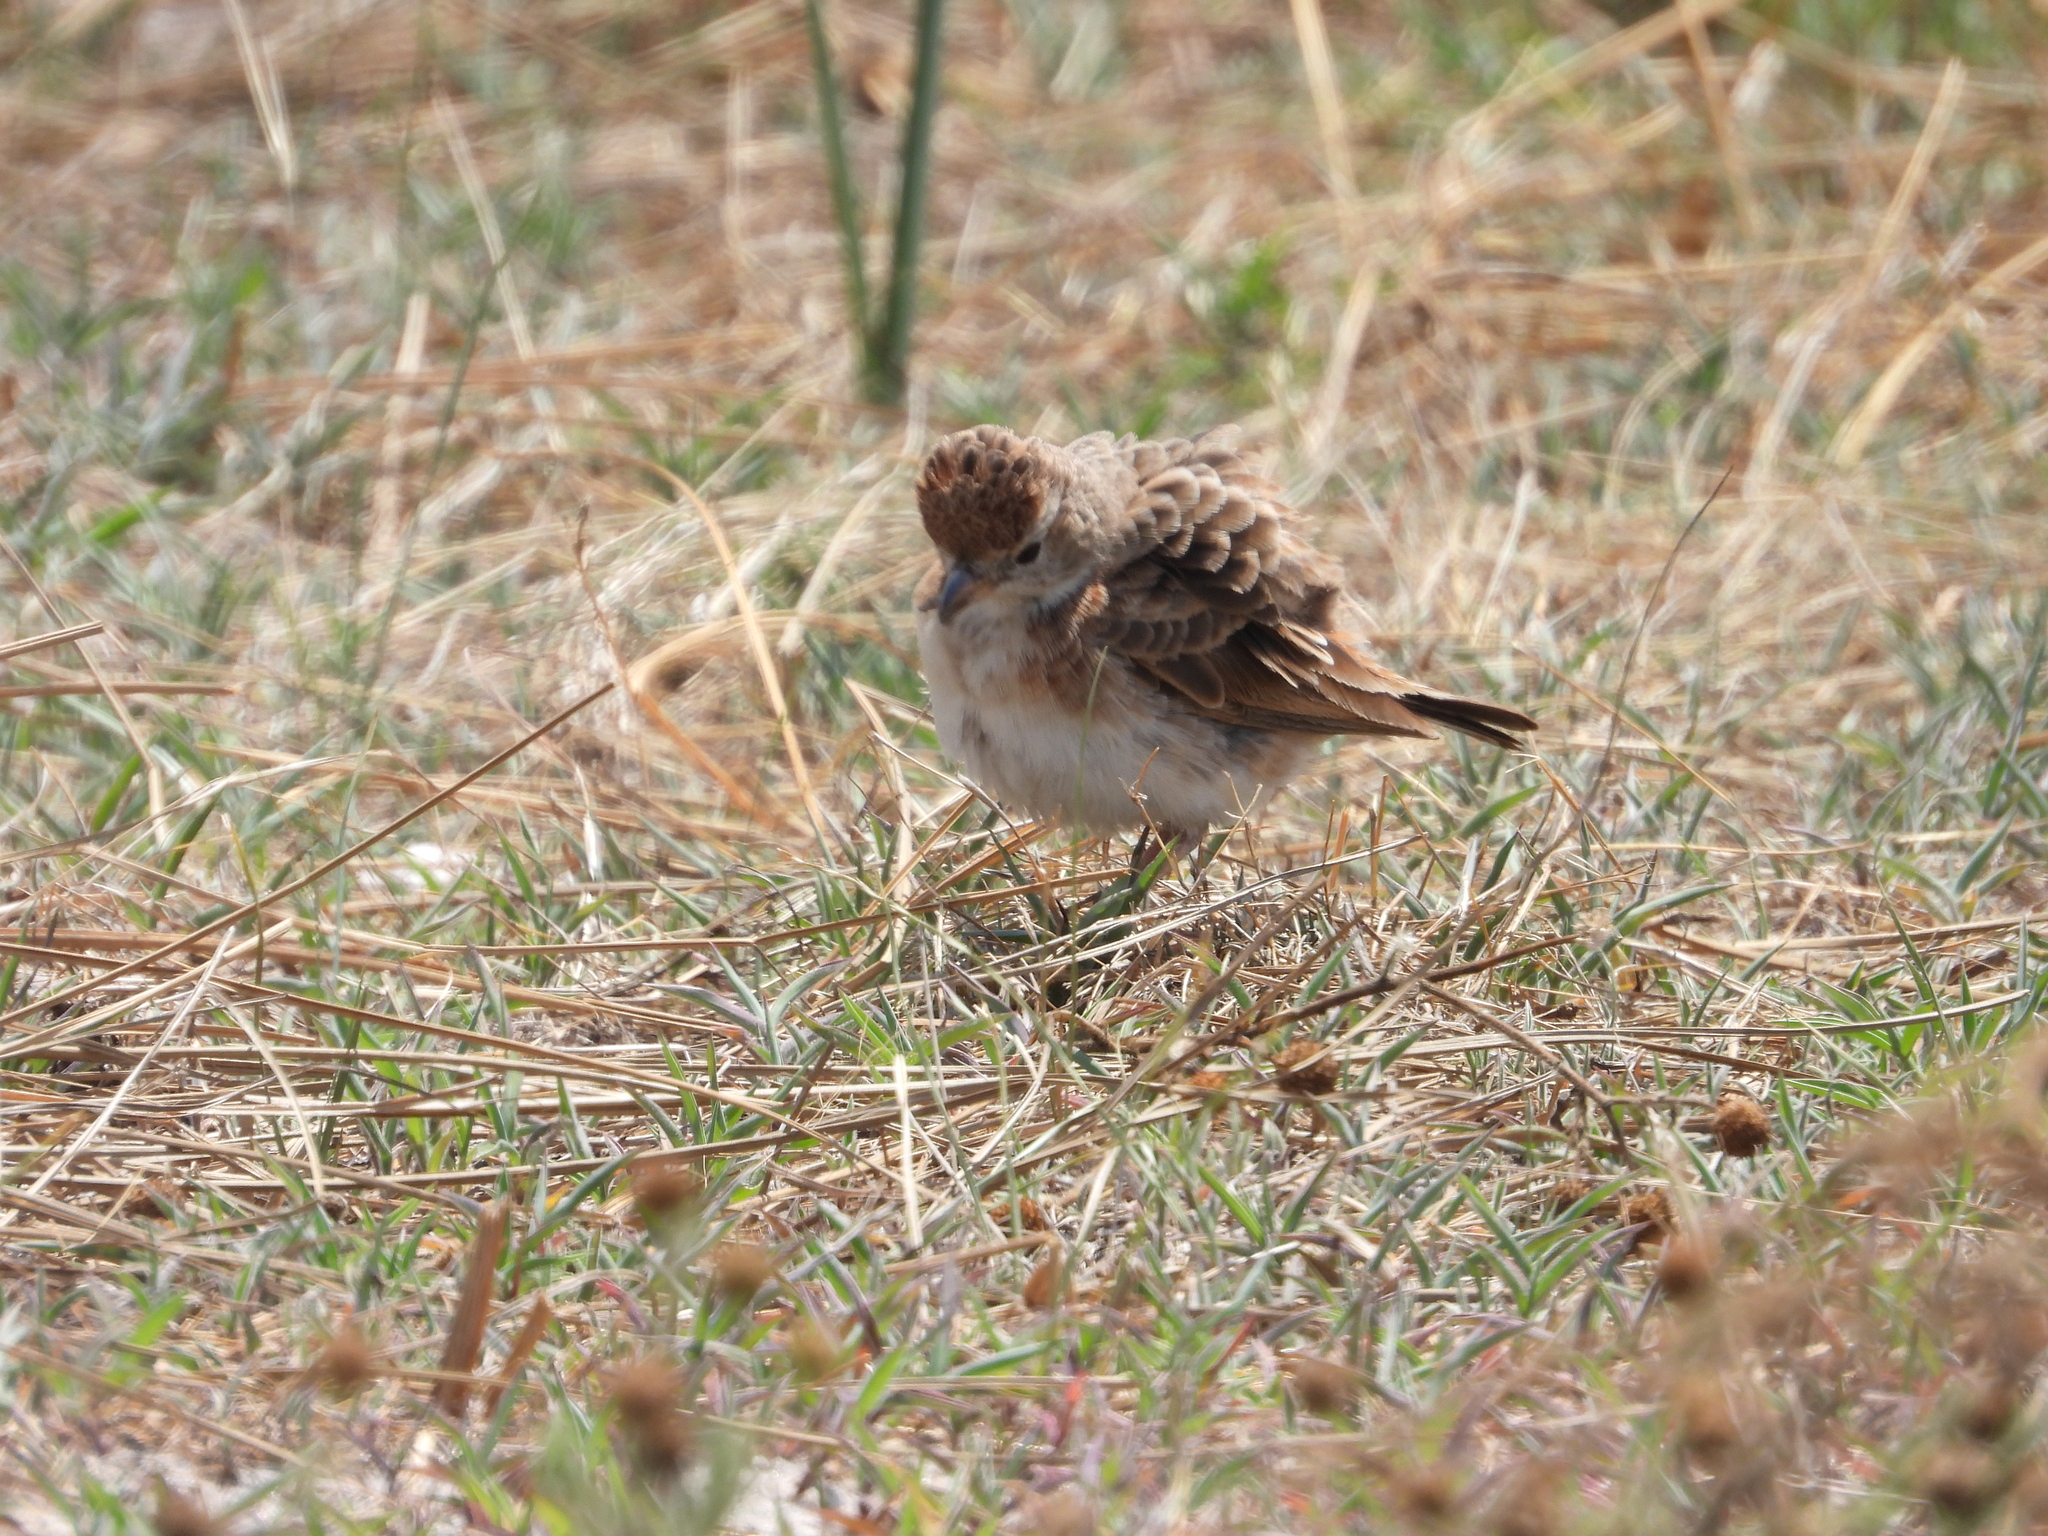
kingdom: Animalia
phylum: Chordata
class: Aves
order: Passeriformes
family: Alaudidae
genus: Calandrella
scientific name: Calandrella cinerea
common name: Red-capped lark
